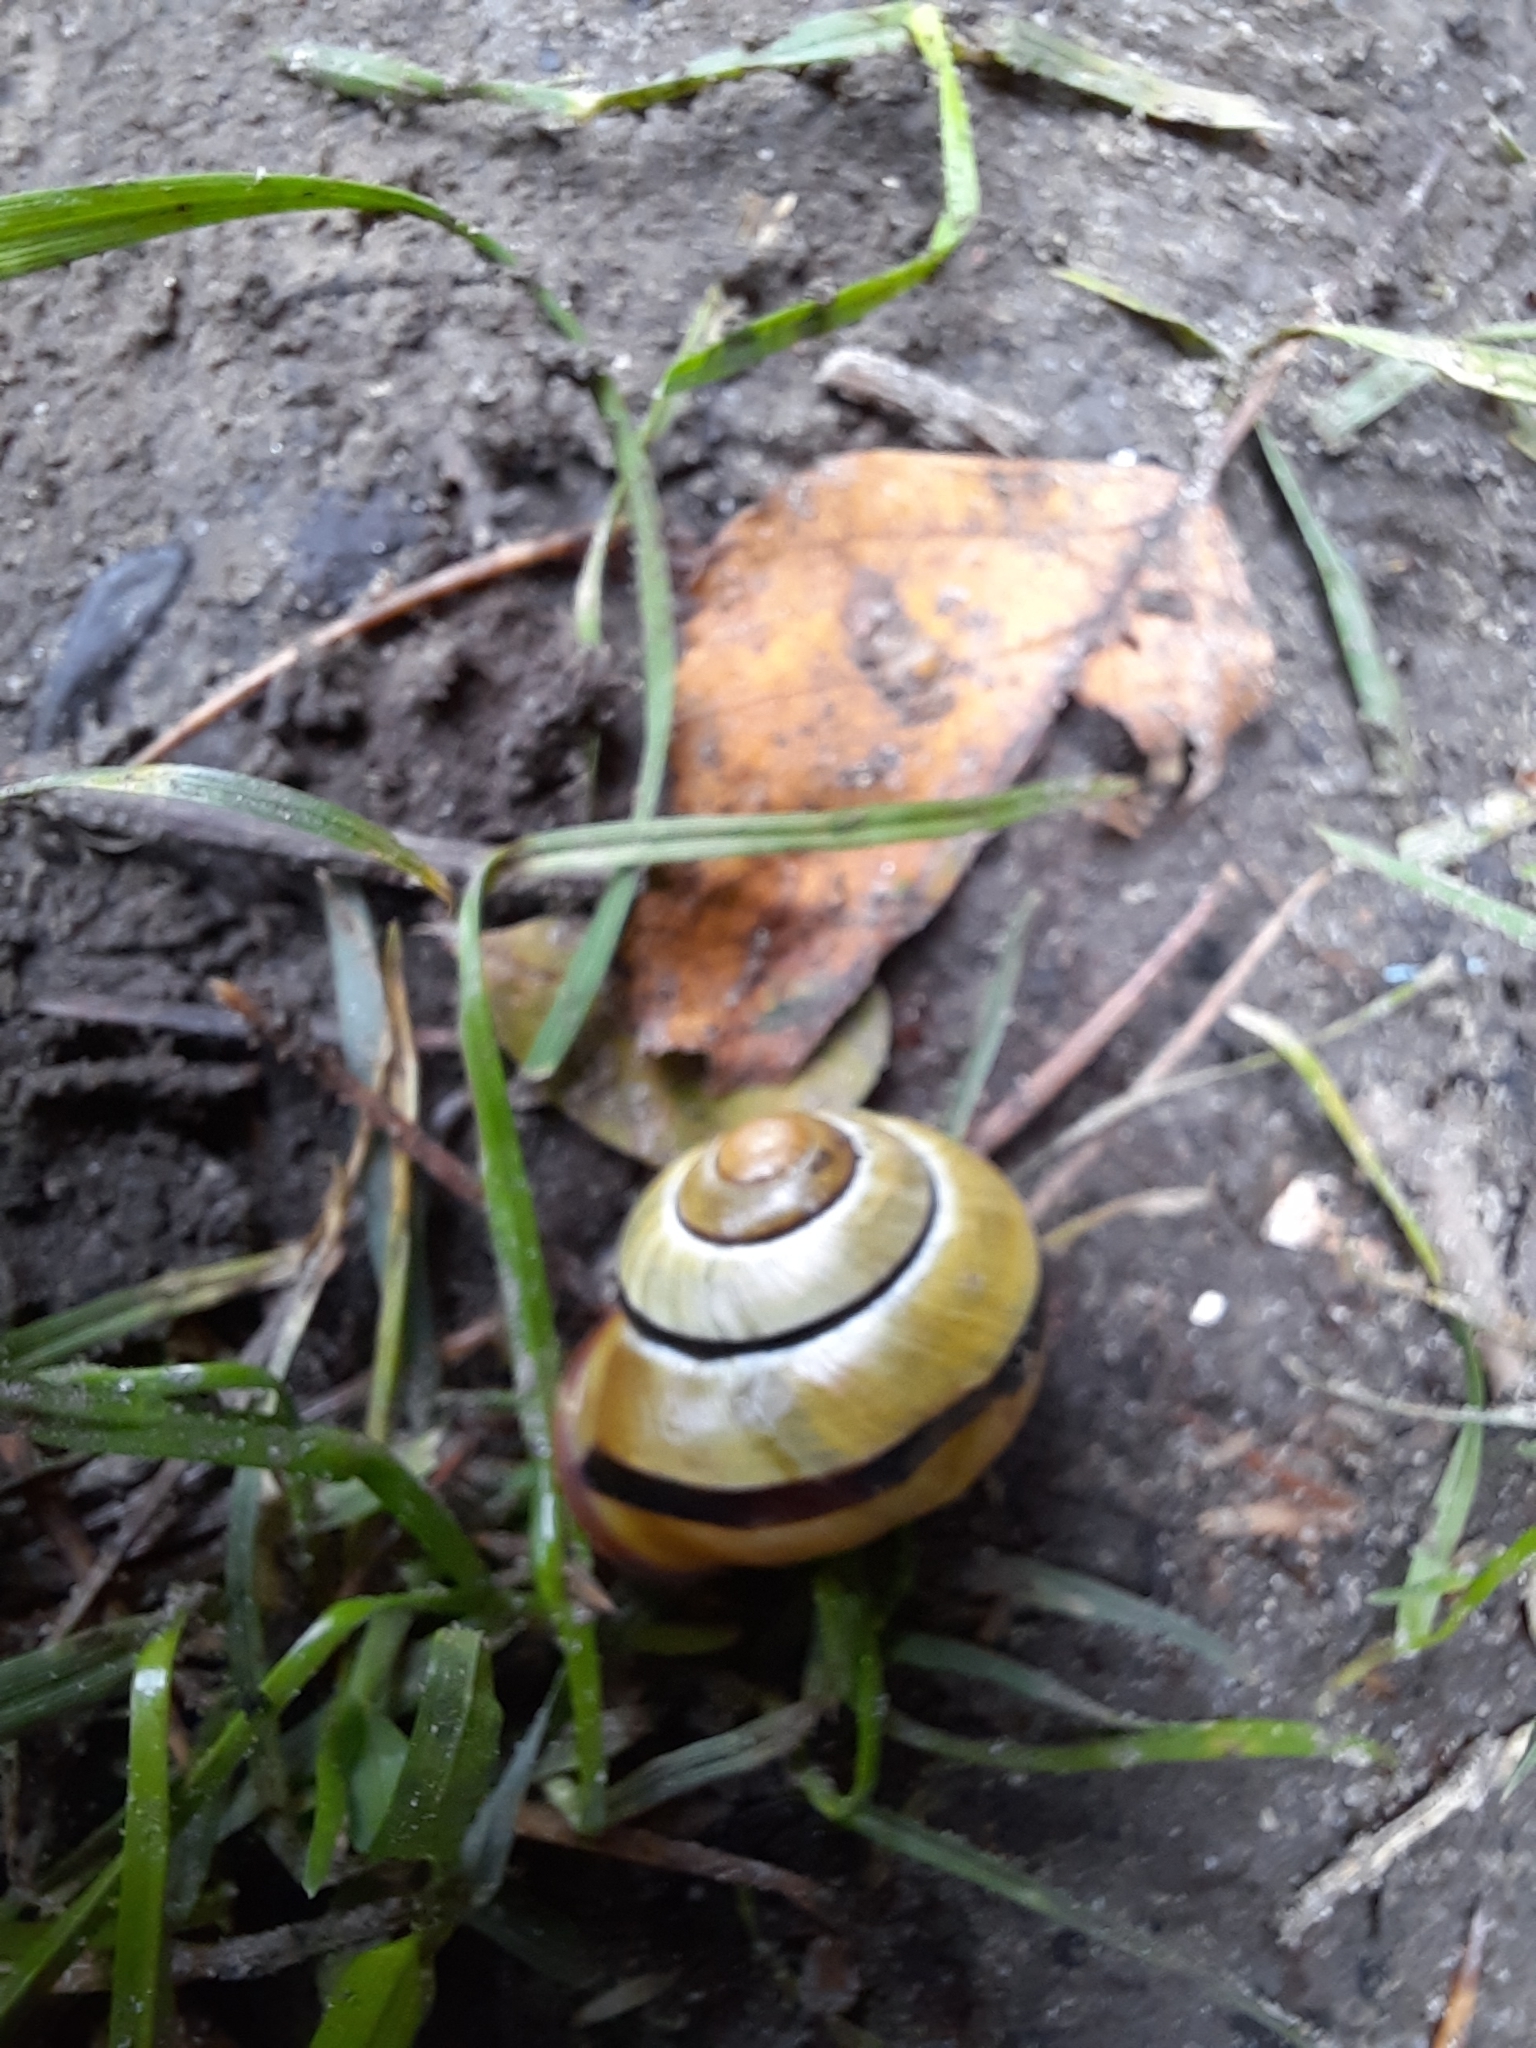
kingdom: Animalia
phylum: Mollusca
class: Gastropoda
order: Stylommatophora
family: Helicidae
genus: Cepaea
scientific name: Cepaea nemoralis
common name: Grovesnail
